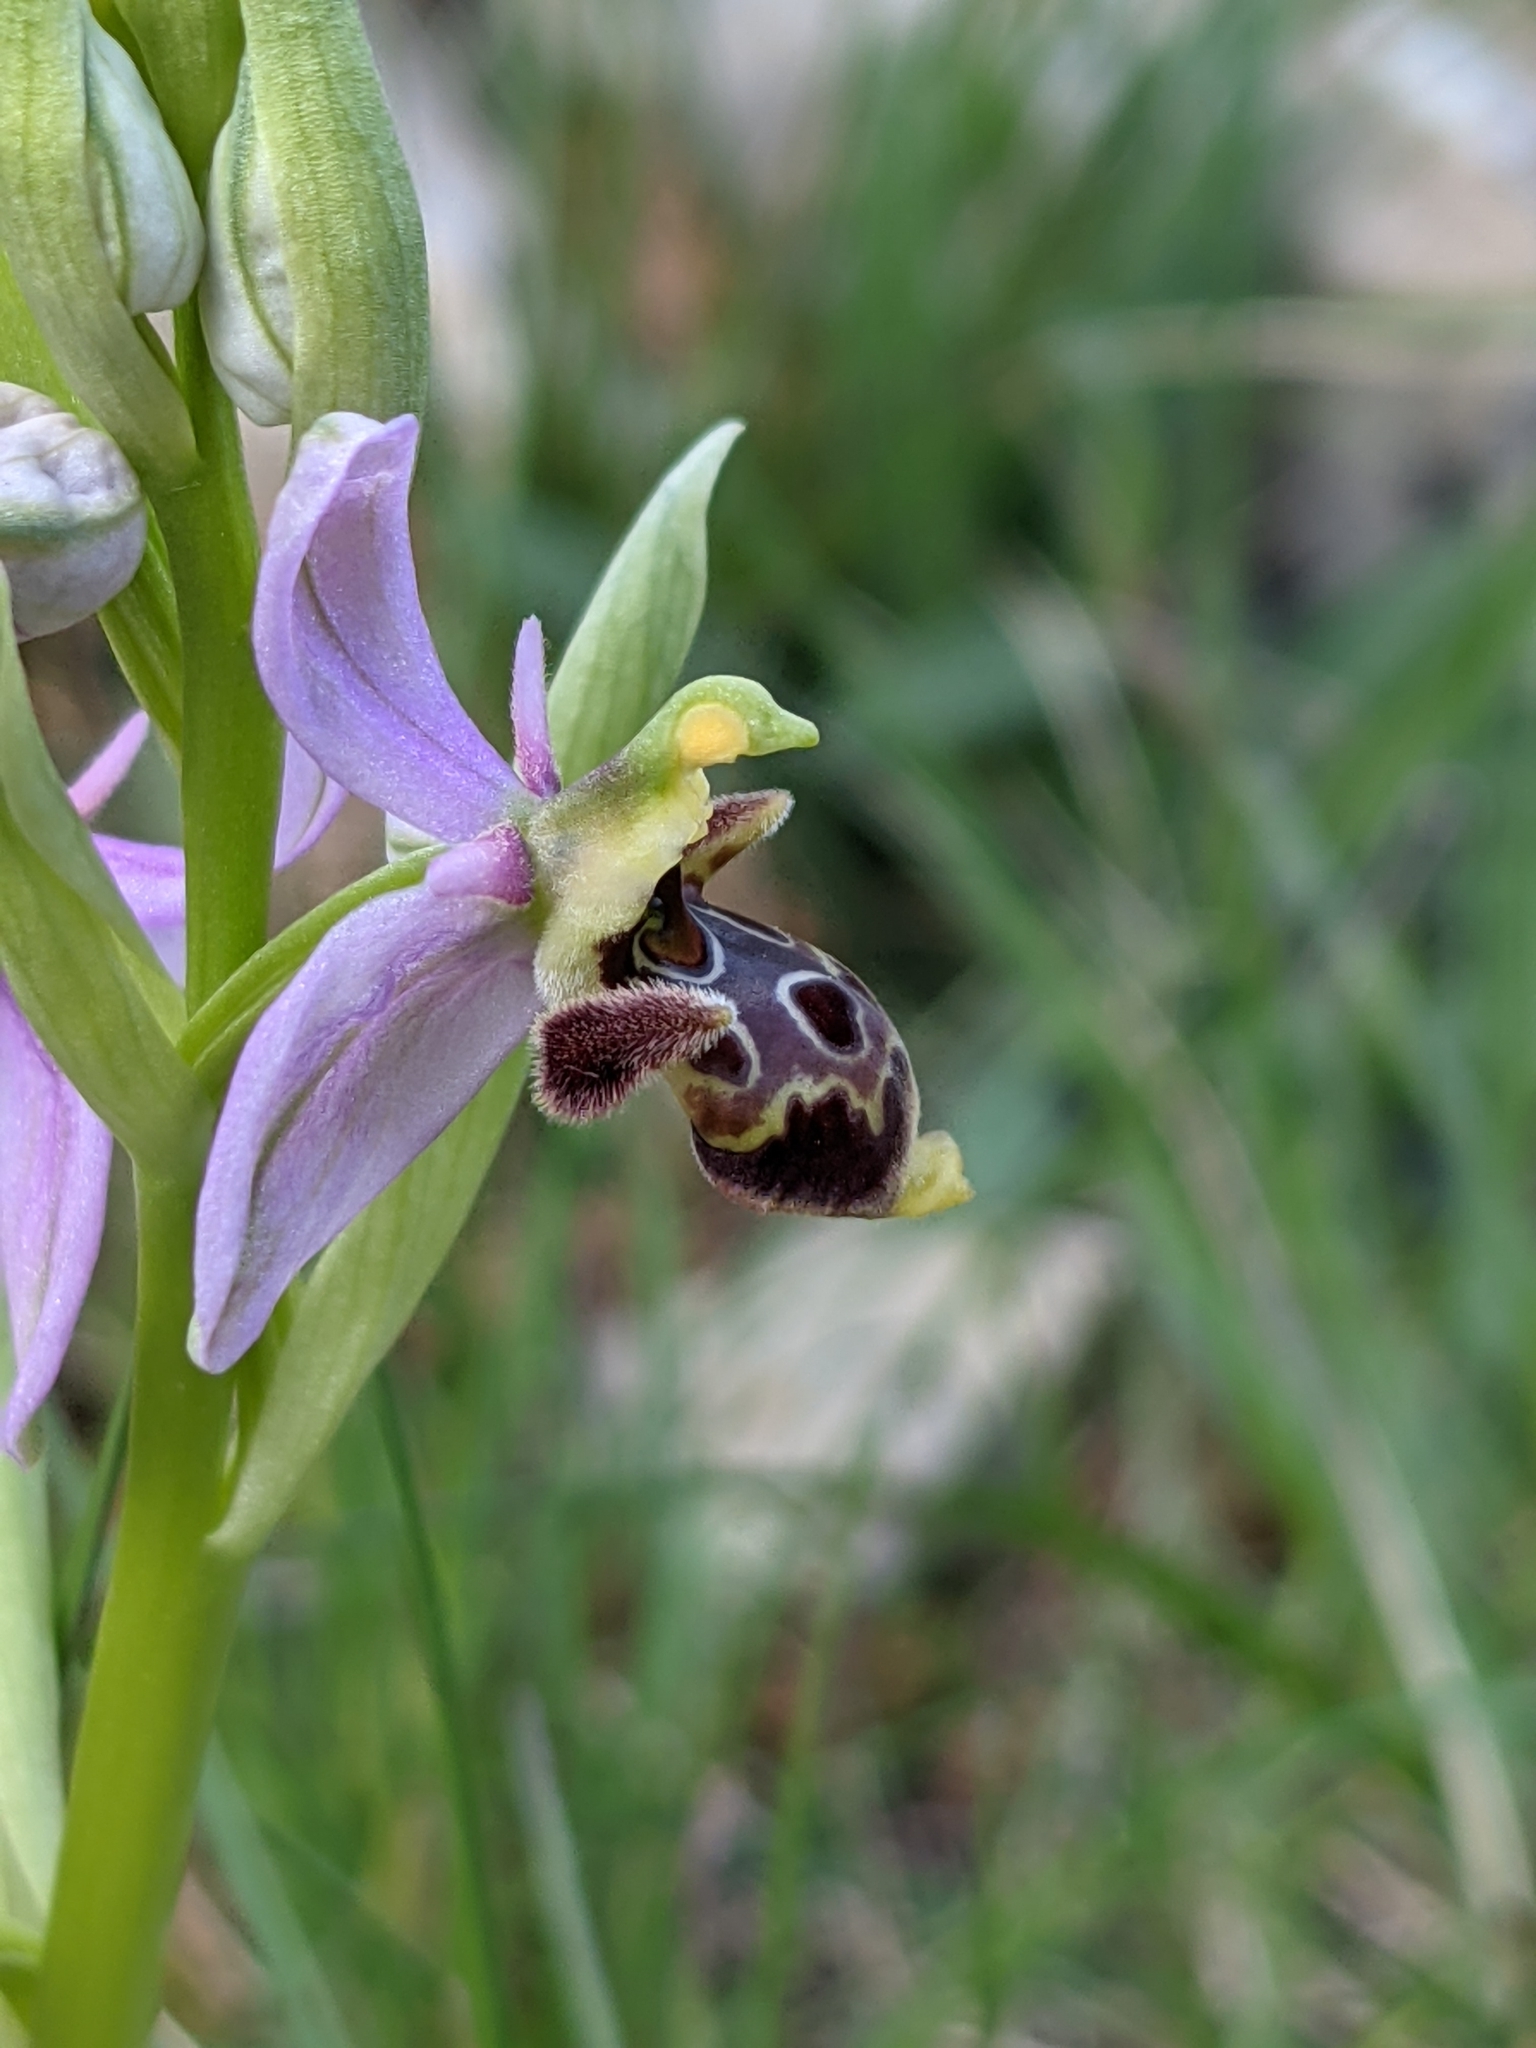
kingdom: Plantae
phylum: Tracheophyta
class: Liliopsida
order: Asparagales
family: Orchidaceae
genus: Ophrys
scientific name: Ophrys scolopax
